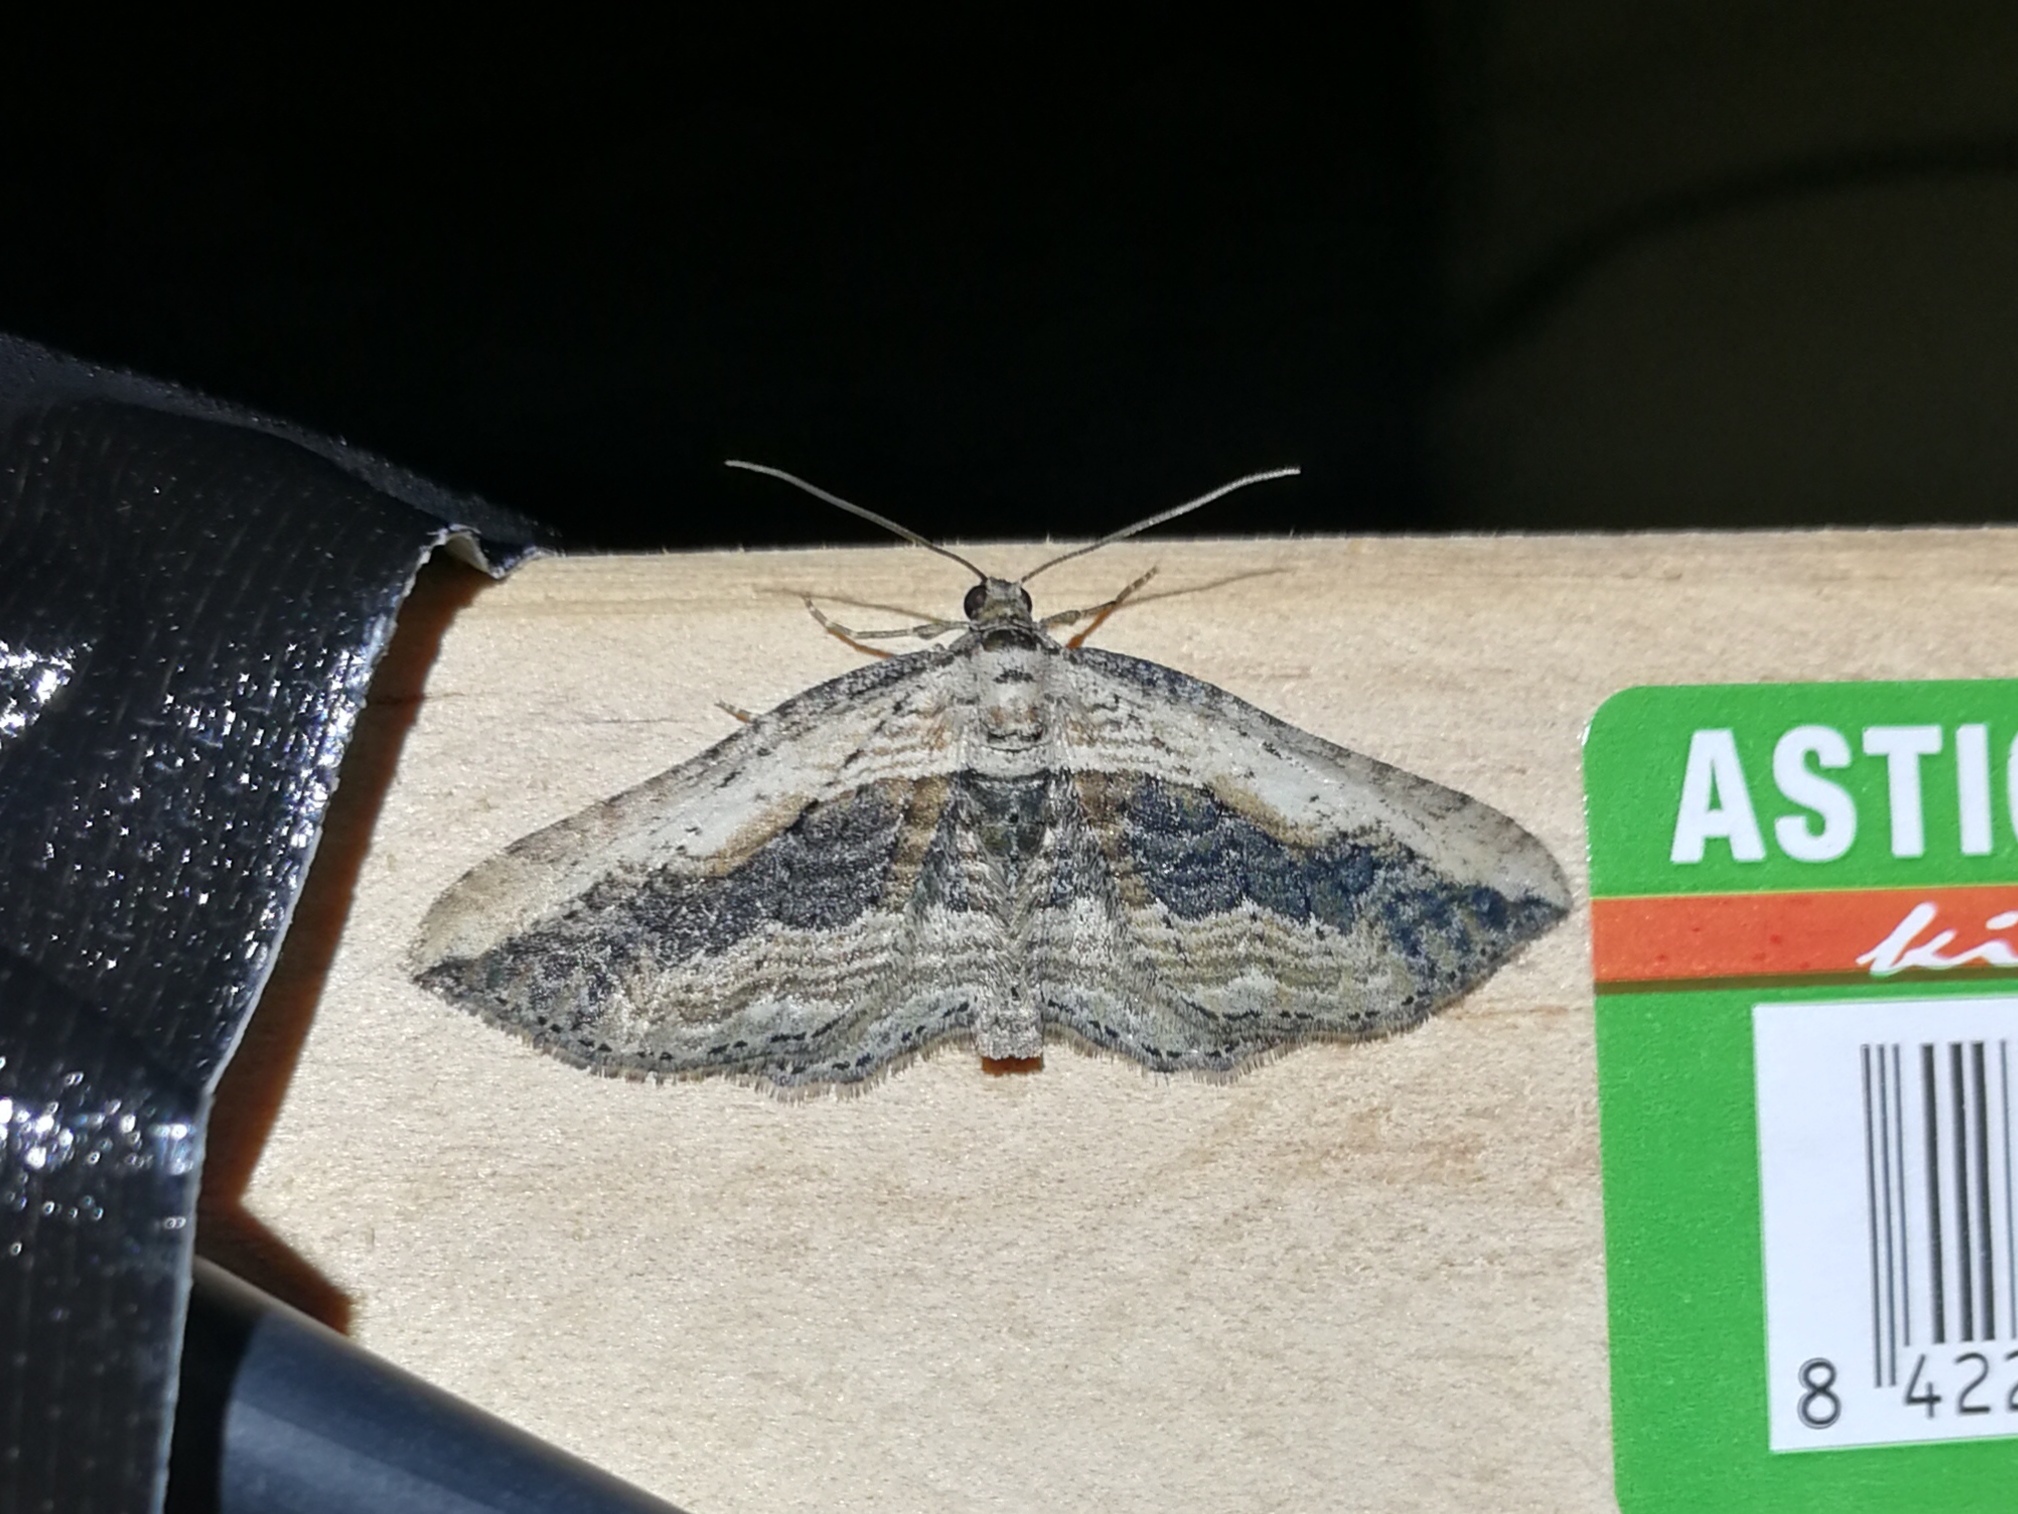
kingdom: Animalia
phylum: Arthropoda
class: Insecta
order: Lepidoptera
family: Geometridae
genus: Horisme
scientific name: Horisme vitalbata
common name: Small waved umber
